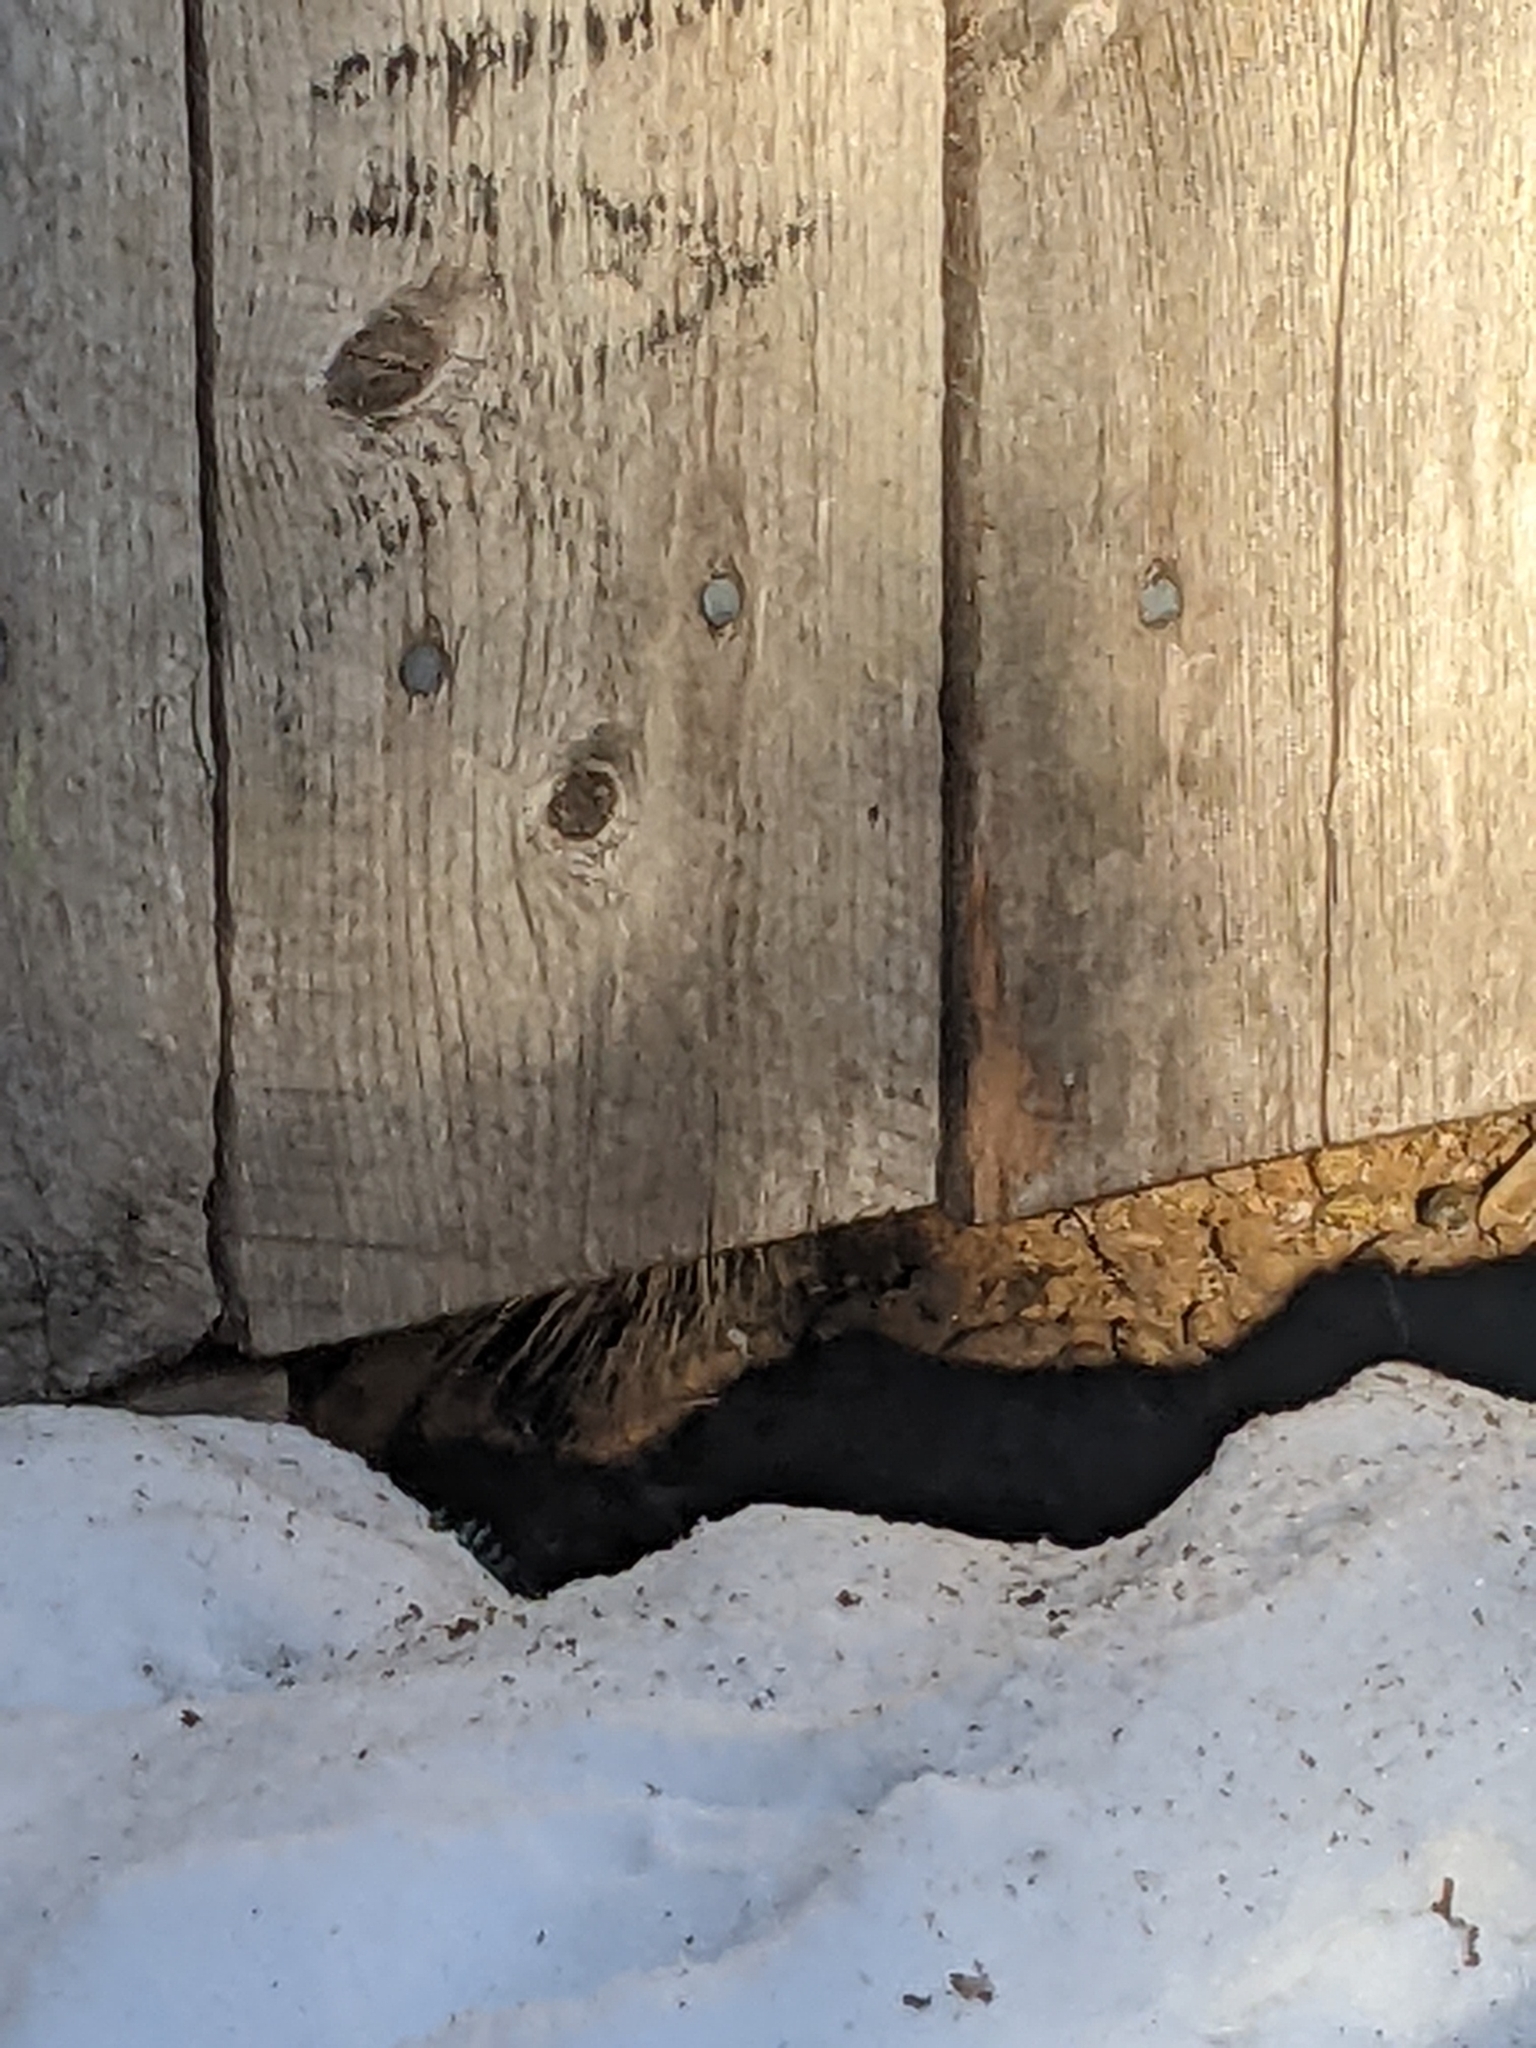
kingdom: Animalia
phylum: Chordata
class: Mammalia
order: Rodentia
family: Erethizontidae
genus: Erethizon
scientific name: Erethizon dorsatus
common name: North american porcupine
